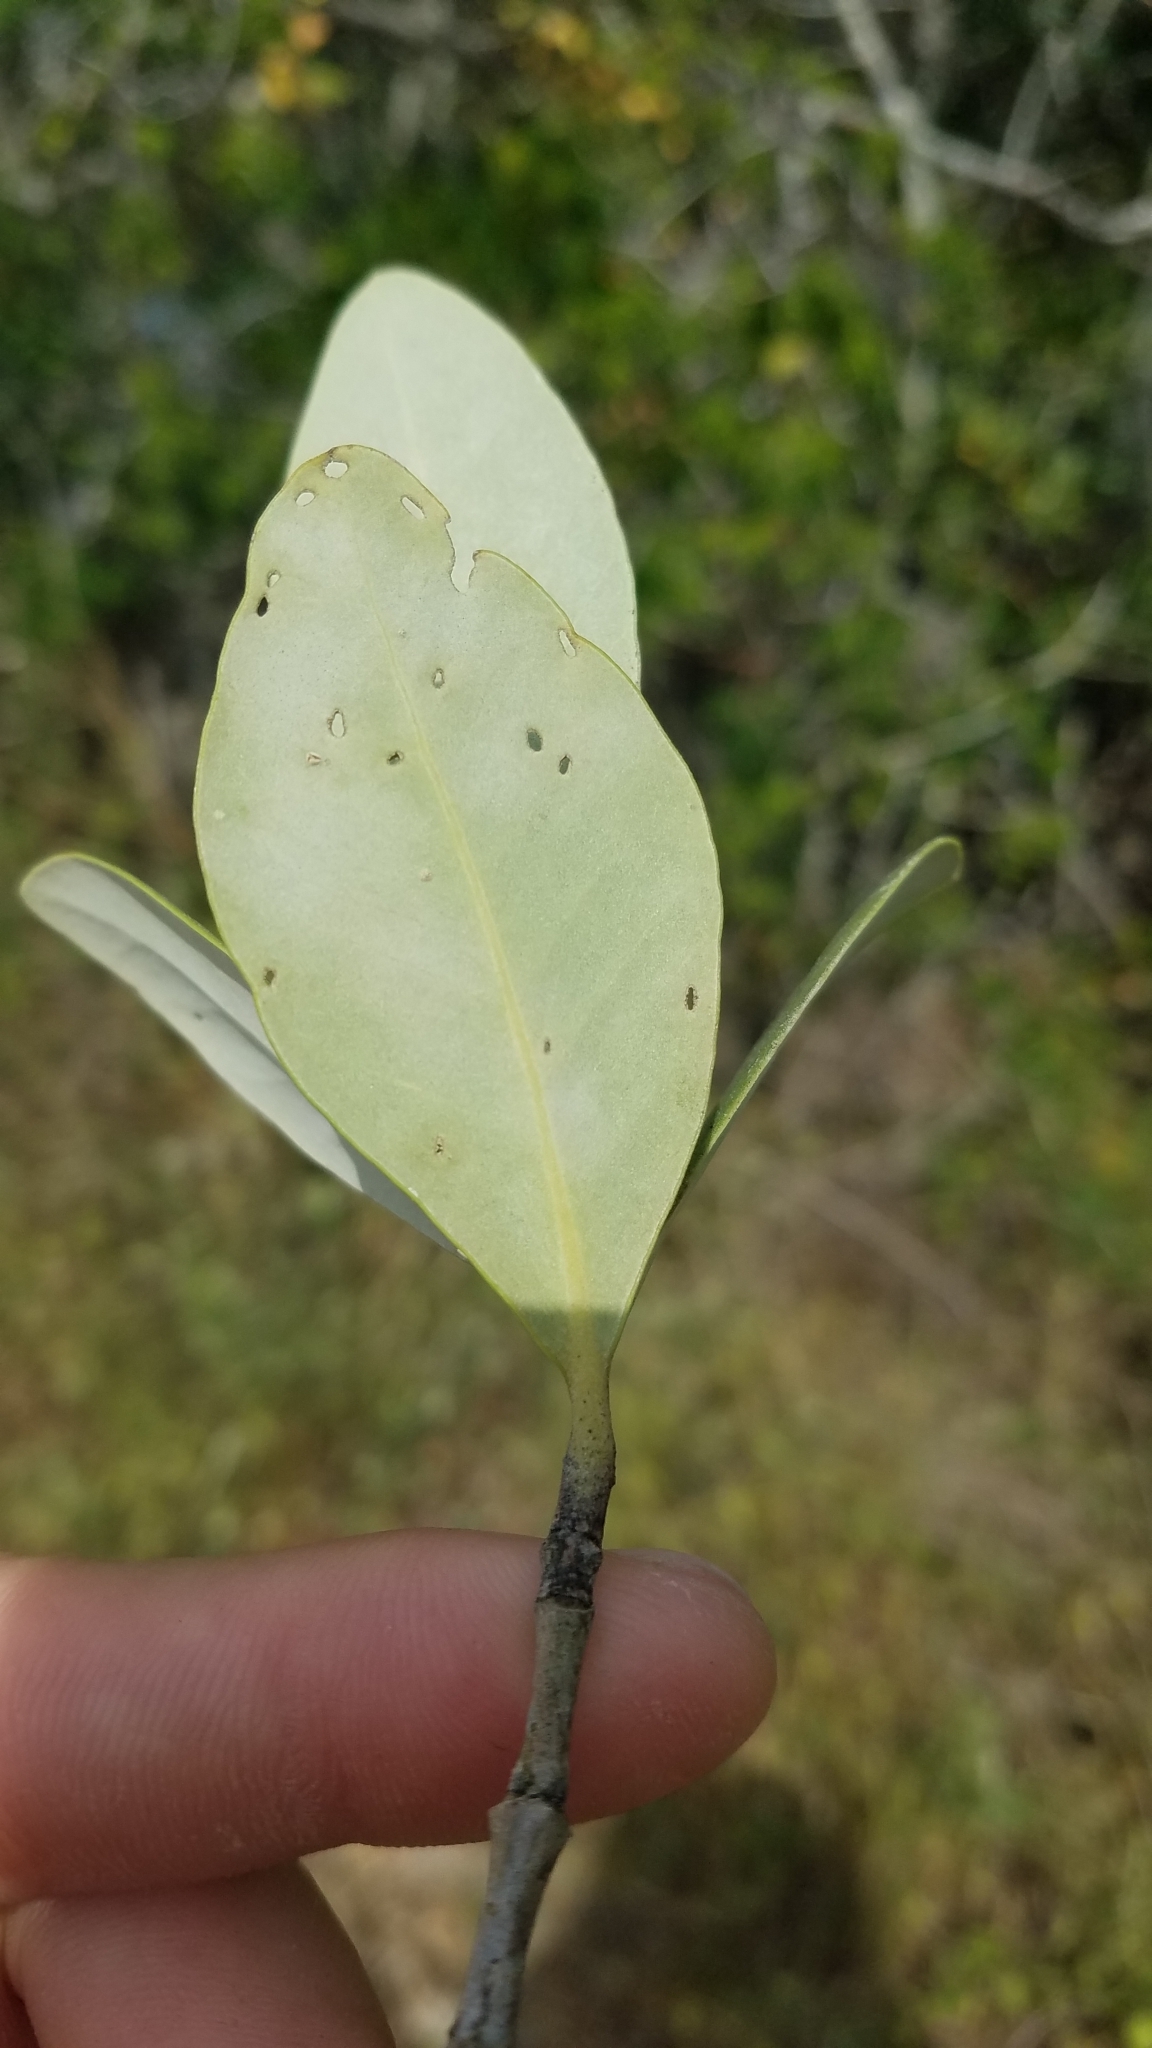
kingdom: Plantae
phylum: Tracheophyta
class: Magnoliopsida
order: Lamiales
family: Acanthaceae
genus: Avicennia
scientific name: Avicennia germinans
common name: Black mangrove
